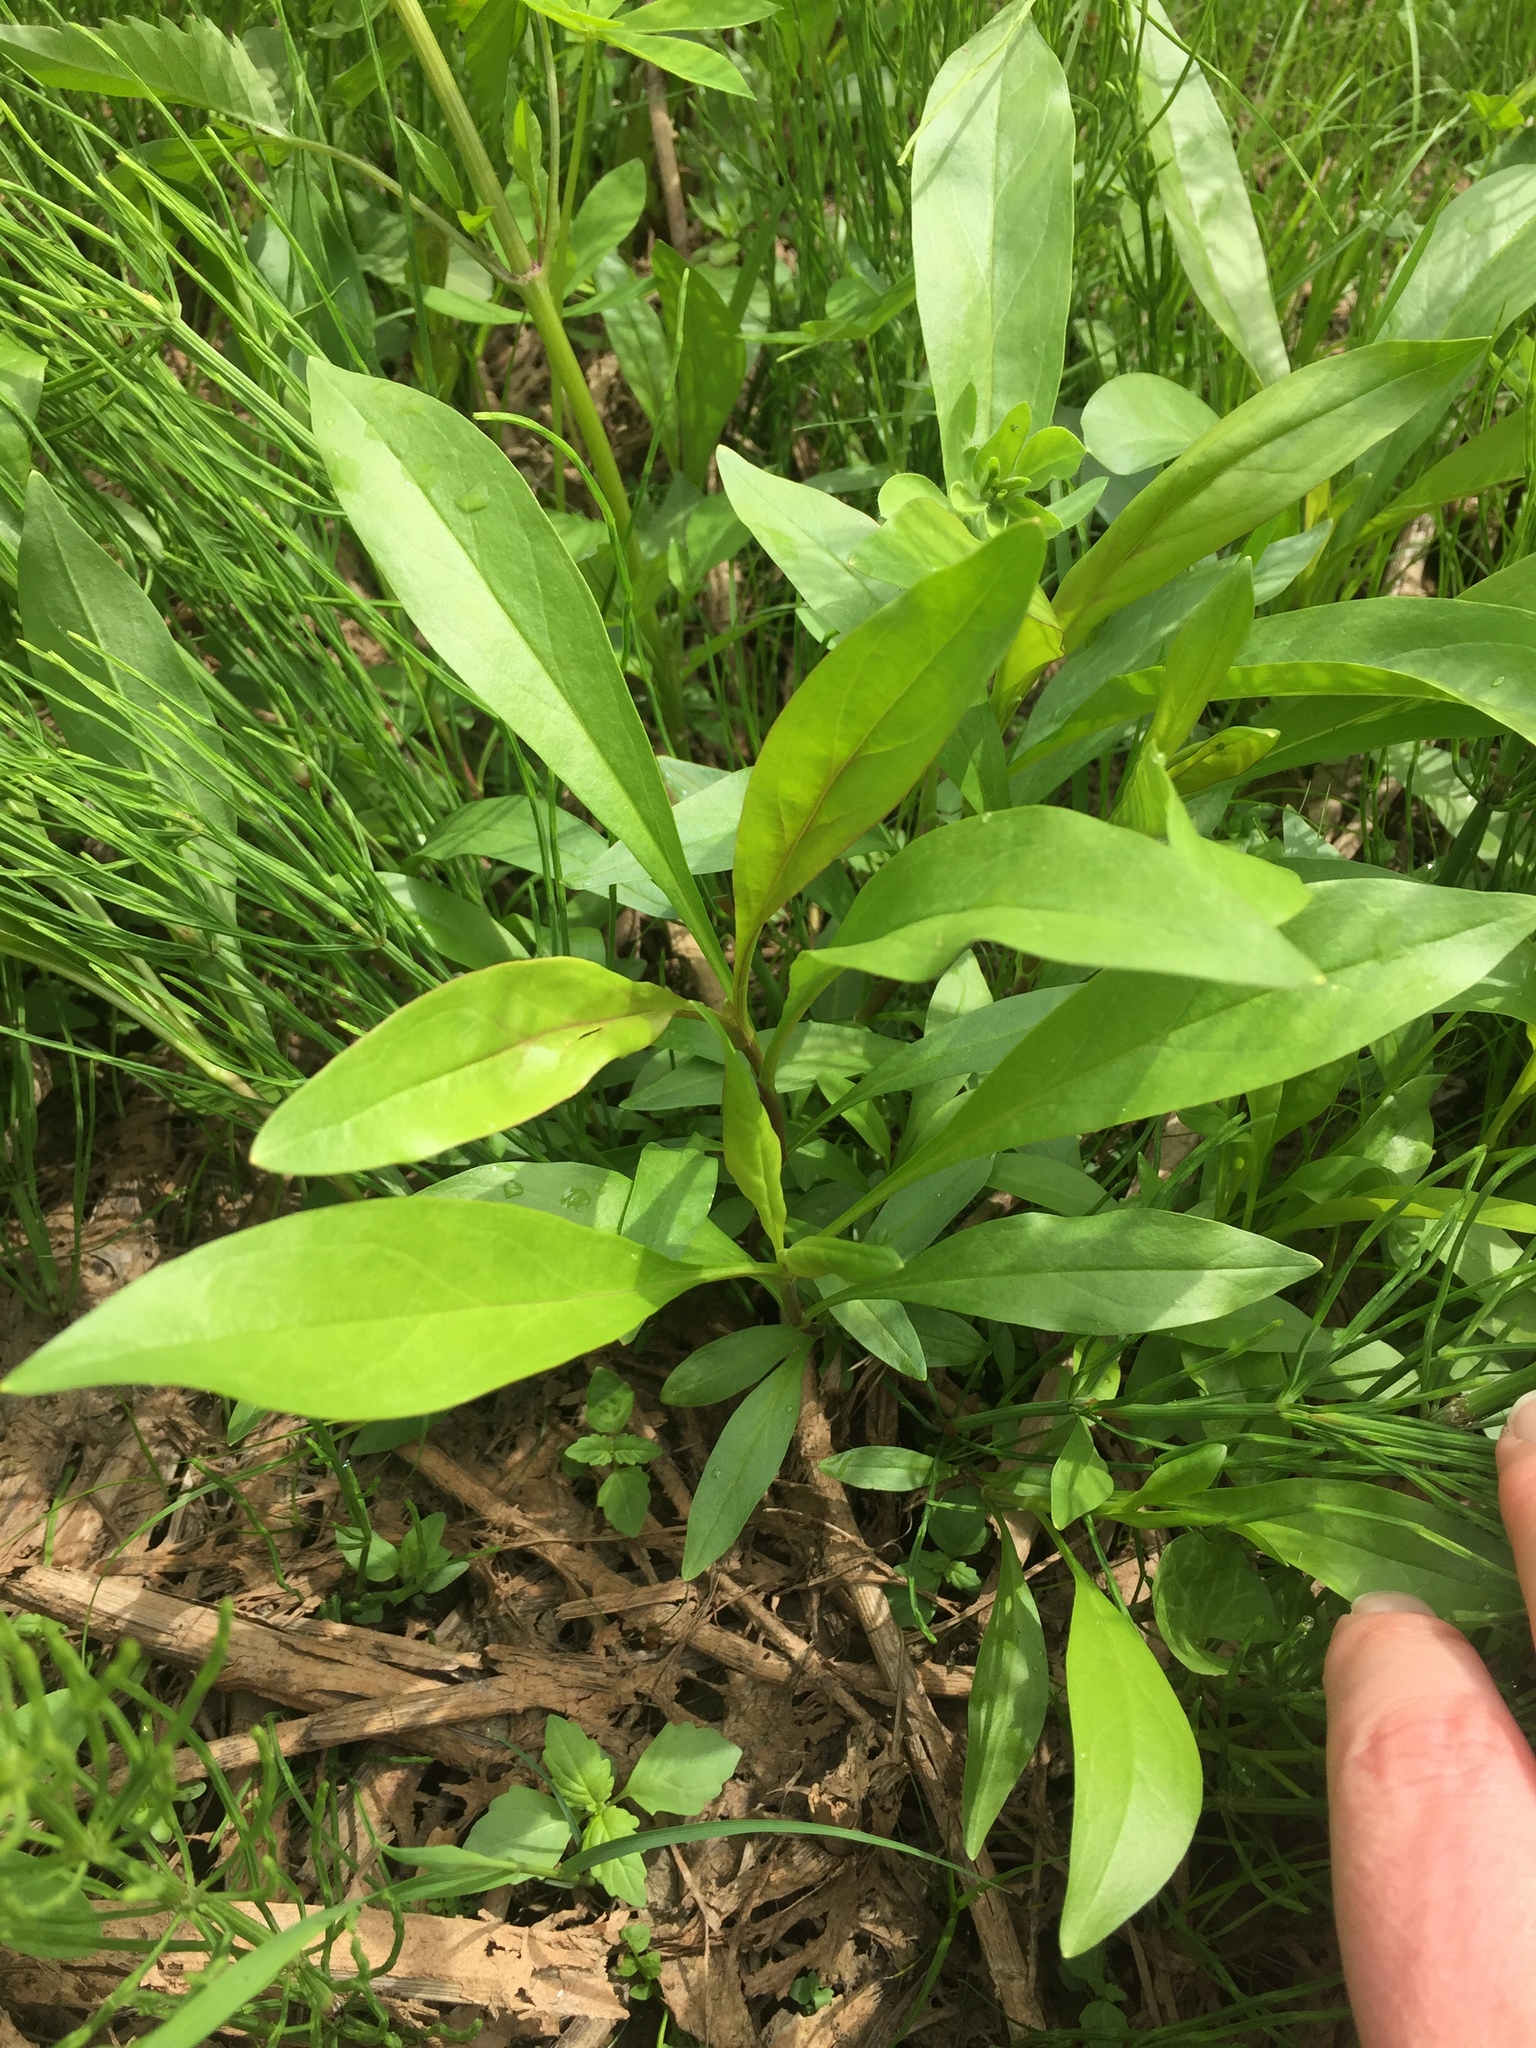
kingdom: Plantae
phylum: Tracheophyta
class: Magnoliopsida
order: Lamiales
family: Plantaginaceae
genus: Penstemon
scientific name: Penstemon hesperius
